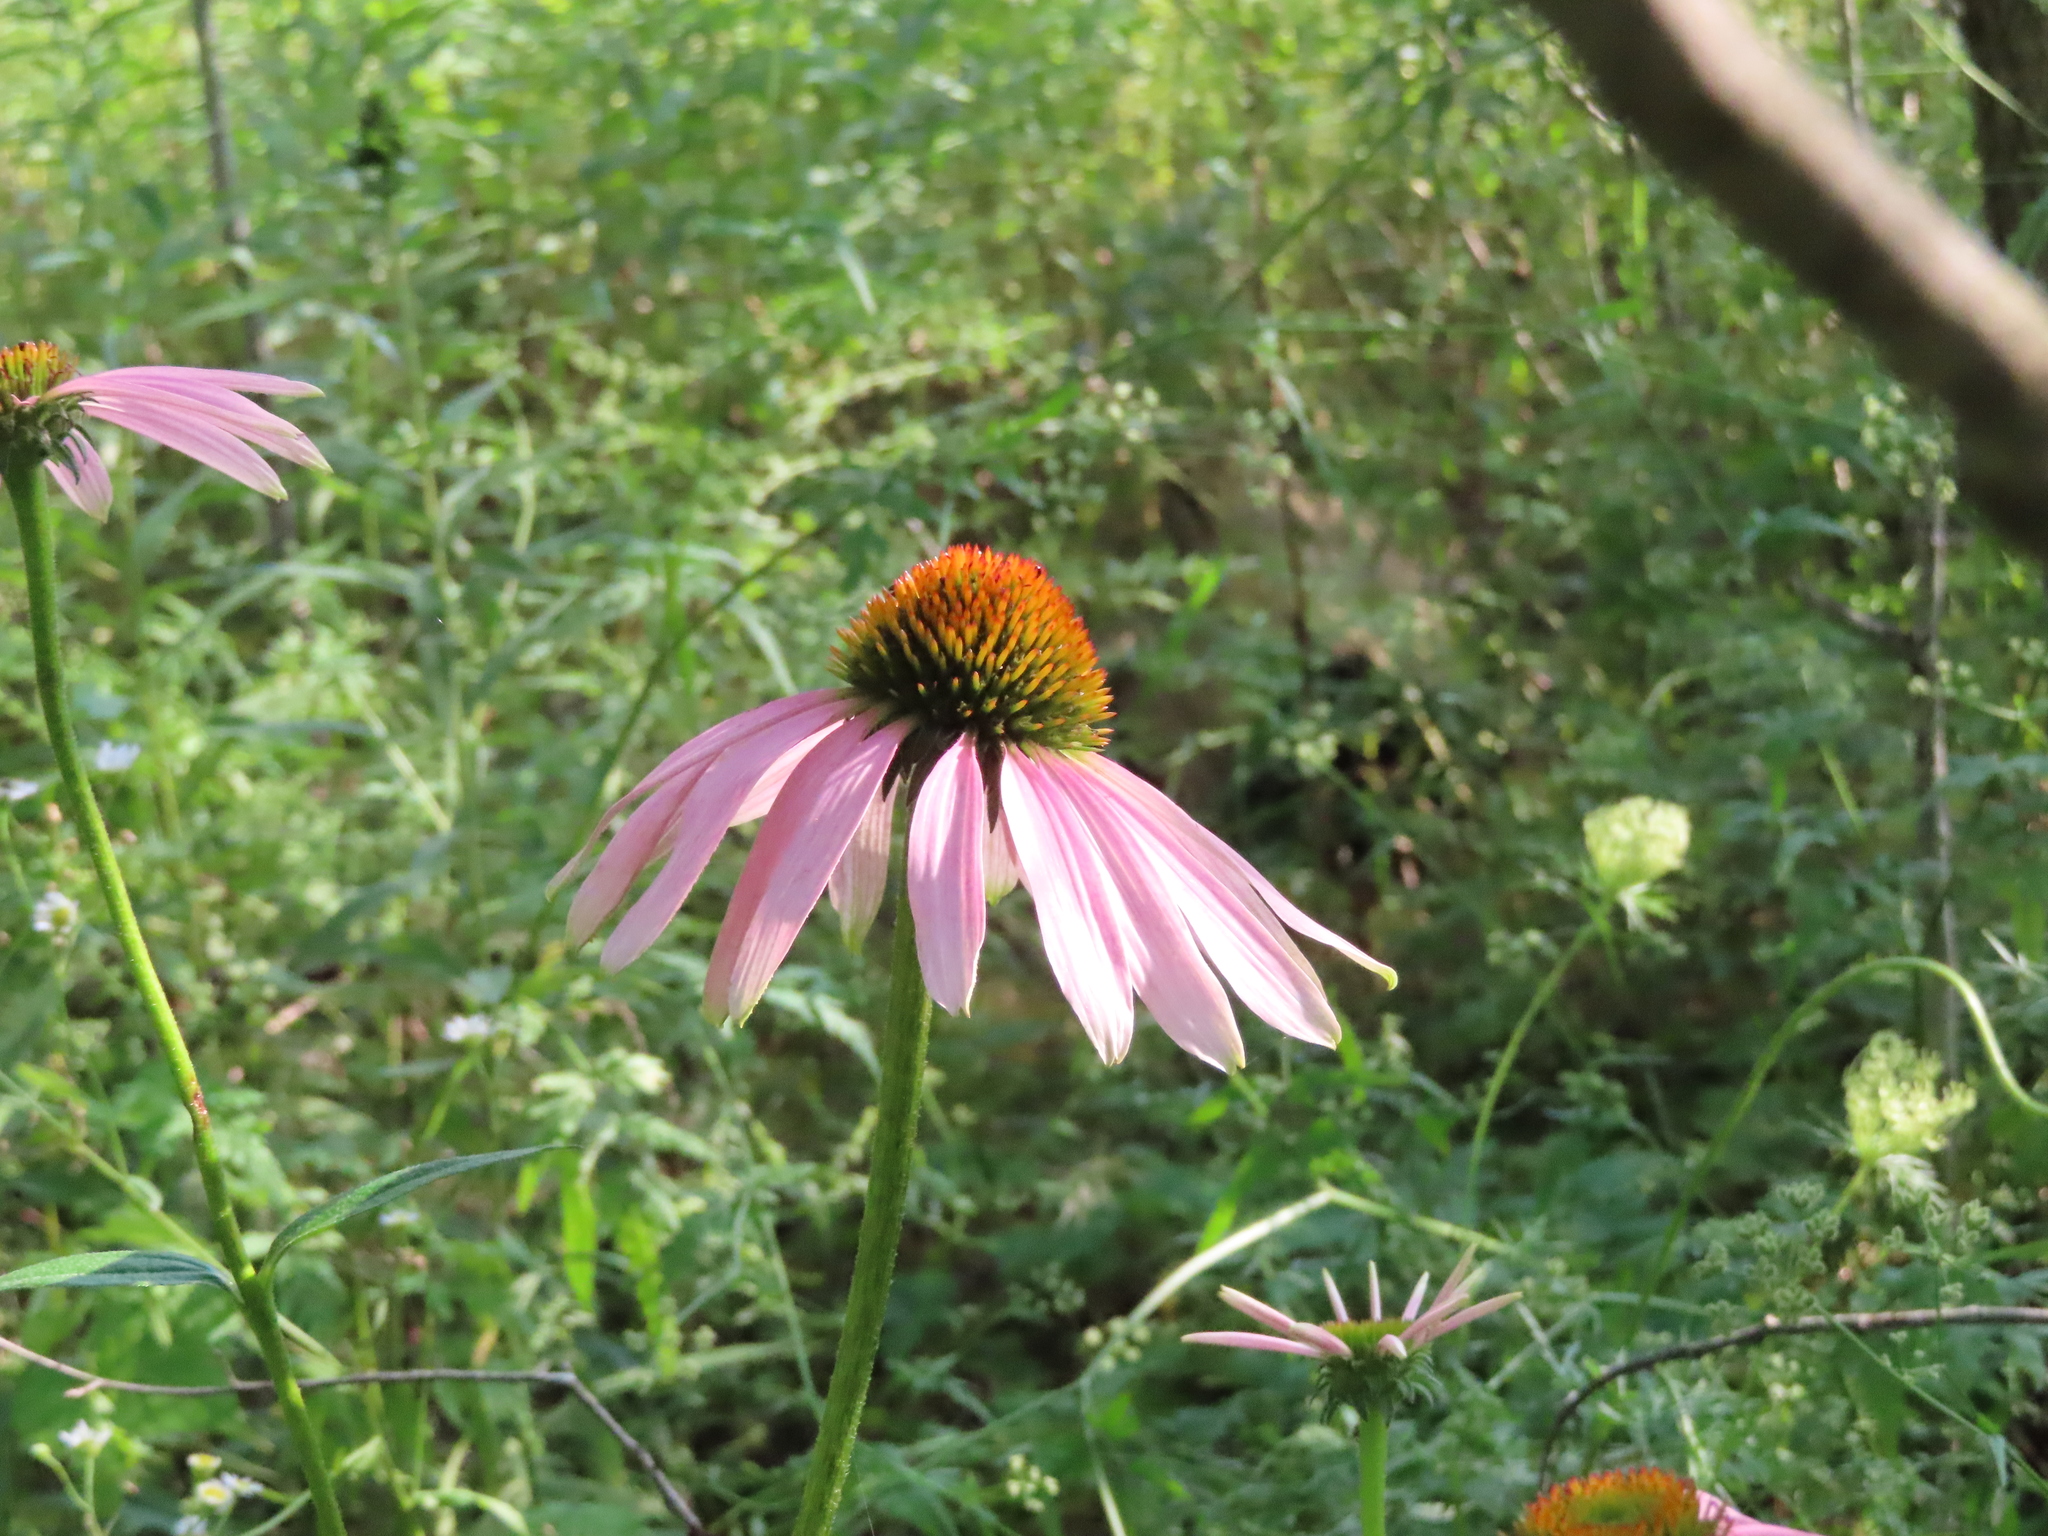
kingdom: Plantae
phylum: Tracheophyta
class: Magnoliopsida
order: Asterales
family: Asteraceae
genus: Echinacea
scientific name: Echinacea purpurea
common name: Broad-leaved purple coneflower
